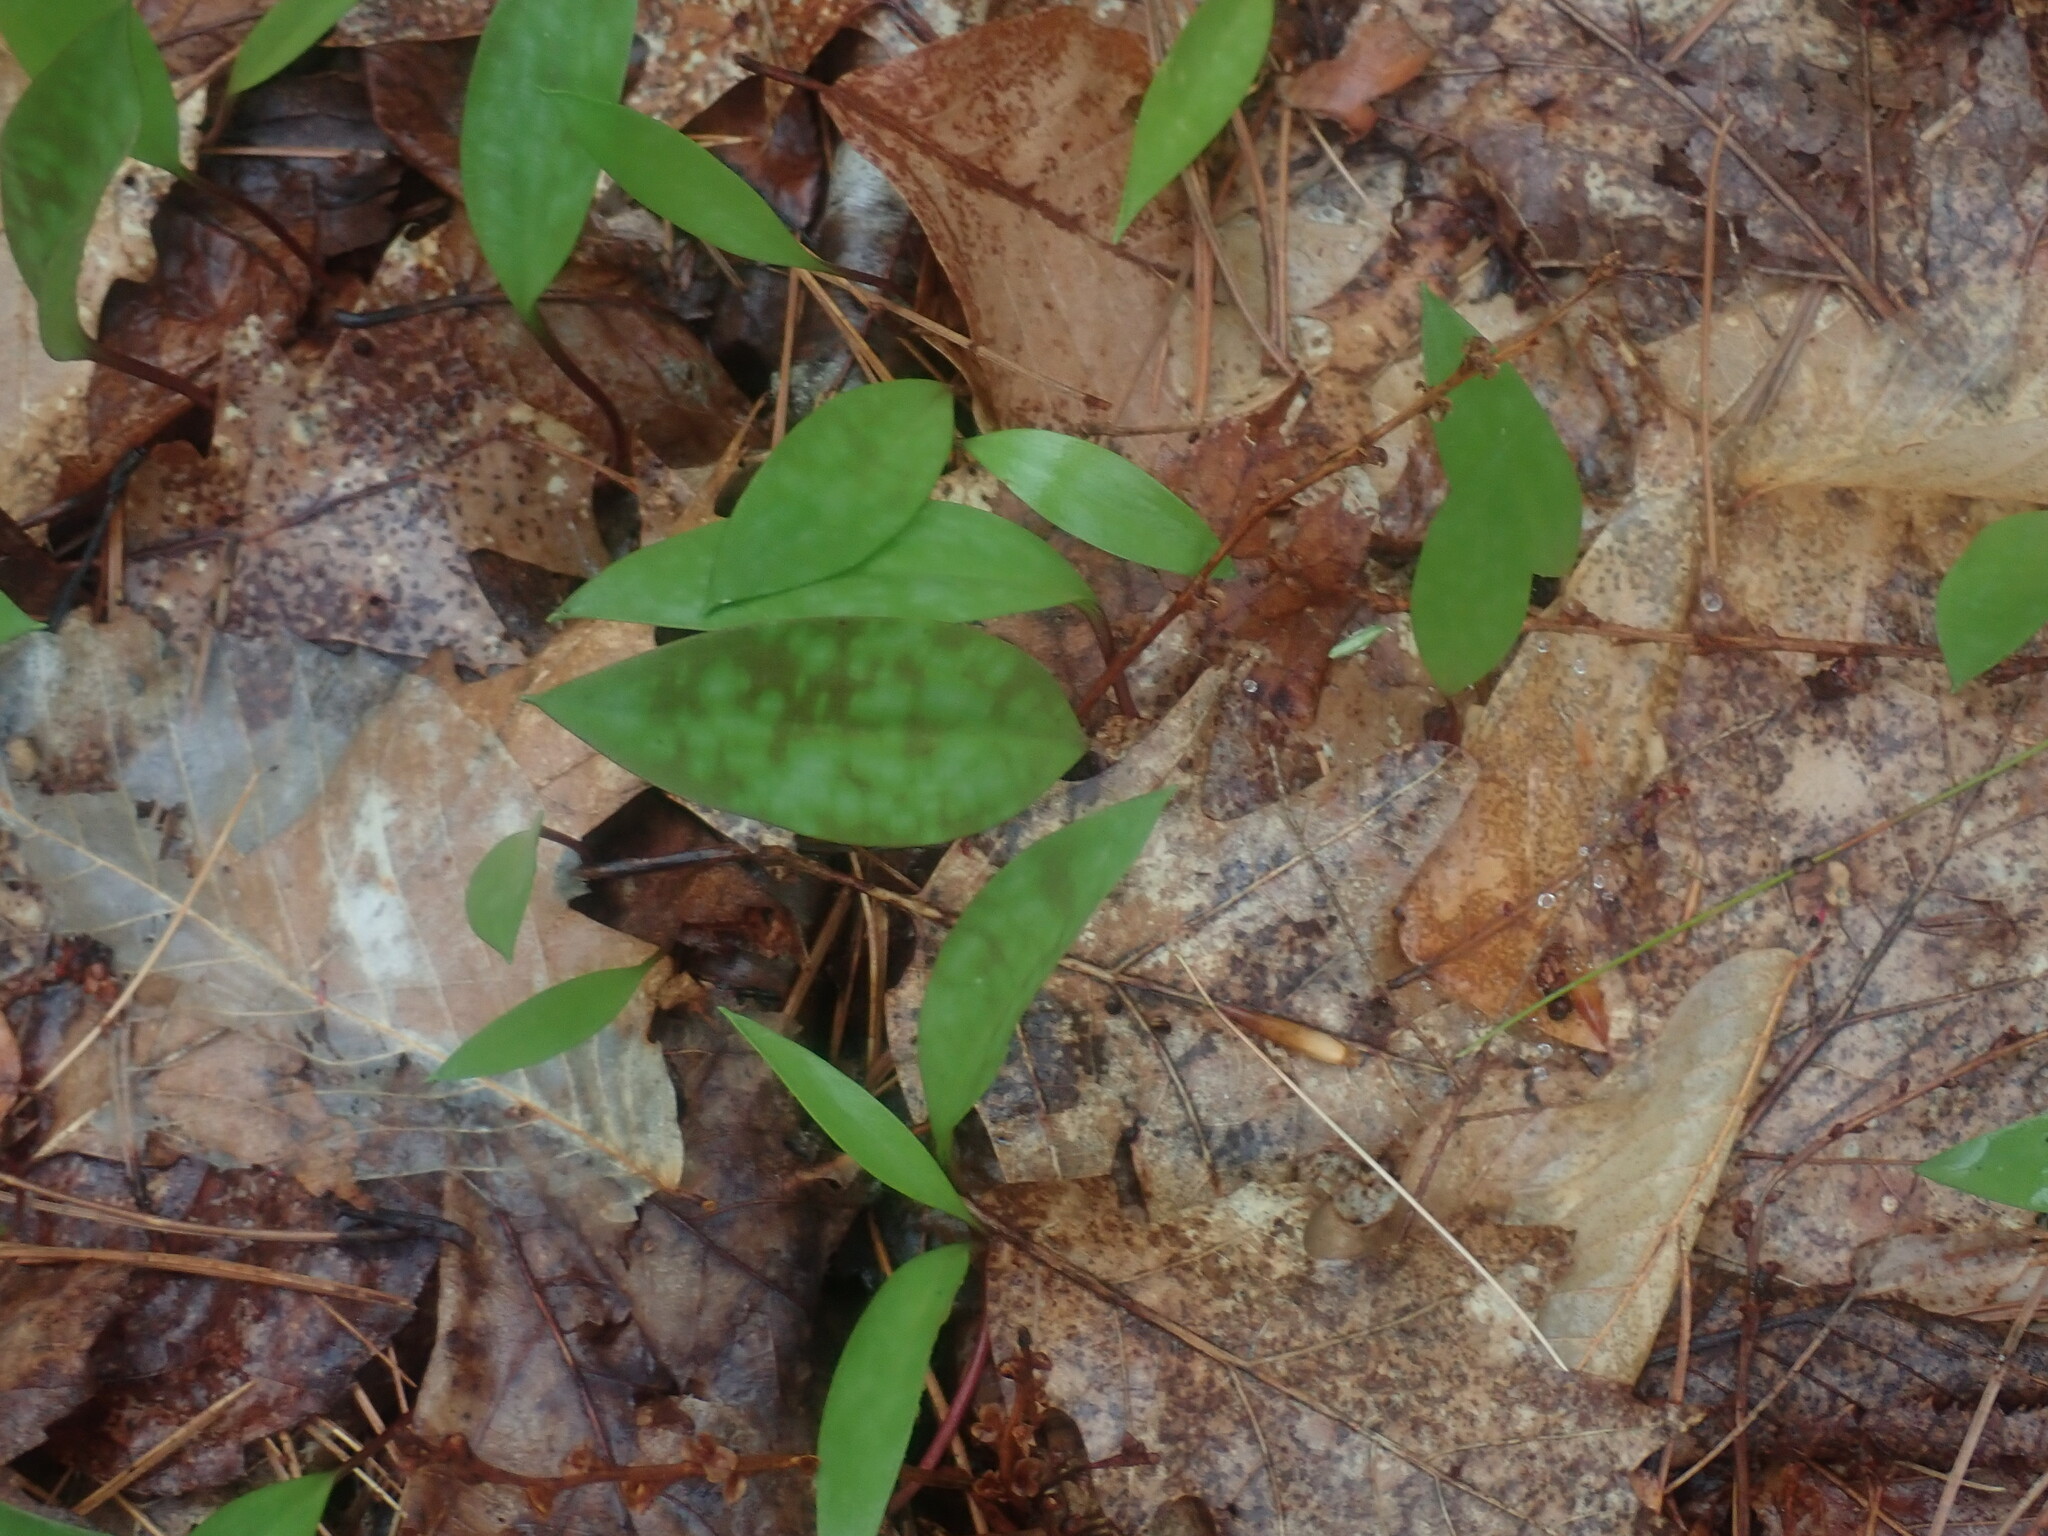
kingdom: Plantae
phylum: Tracheophyta
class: Liliopsida
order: Liliales
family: Liliaceae
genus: Erythronium
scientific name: Erythronium americanum
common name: Yellow adder's-tongue
